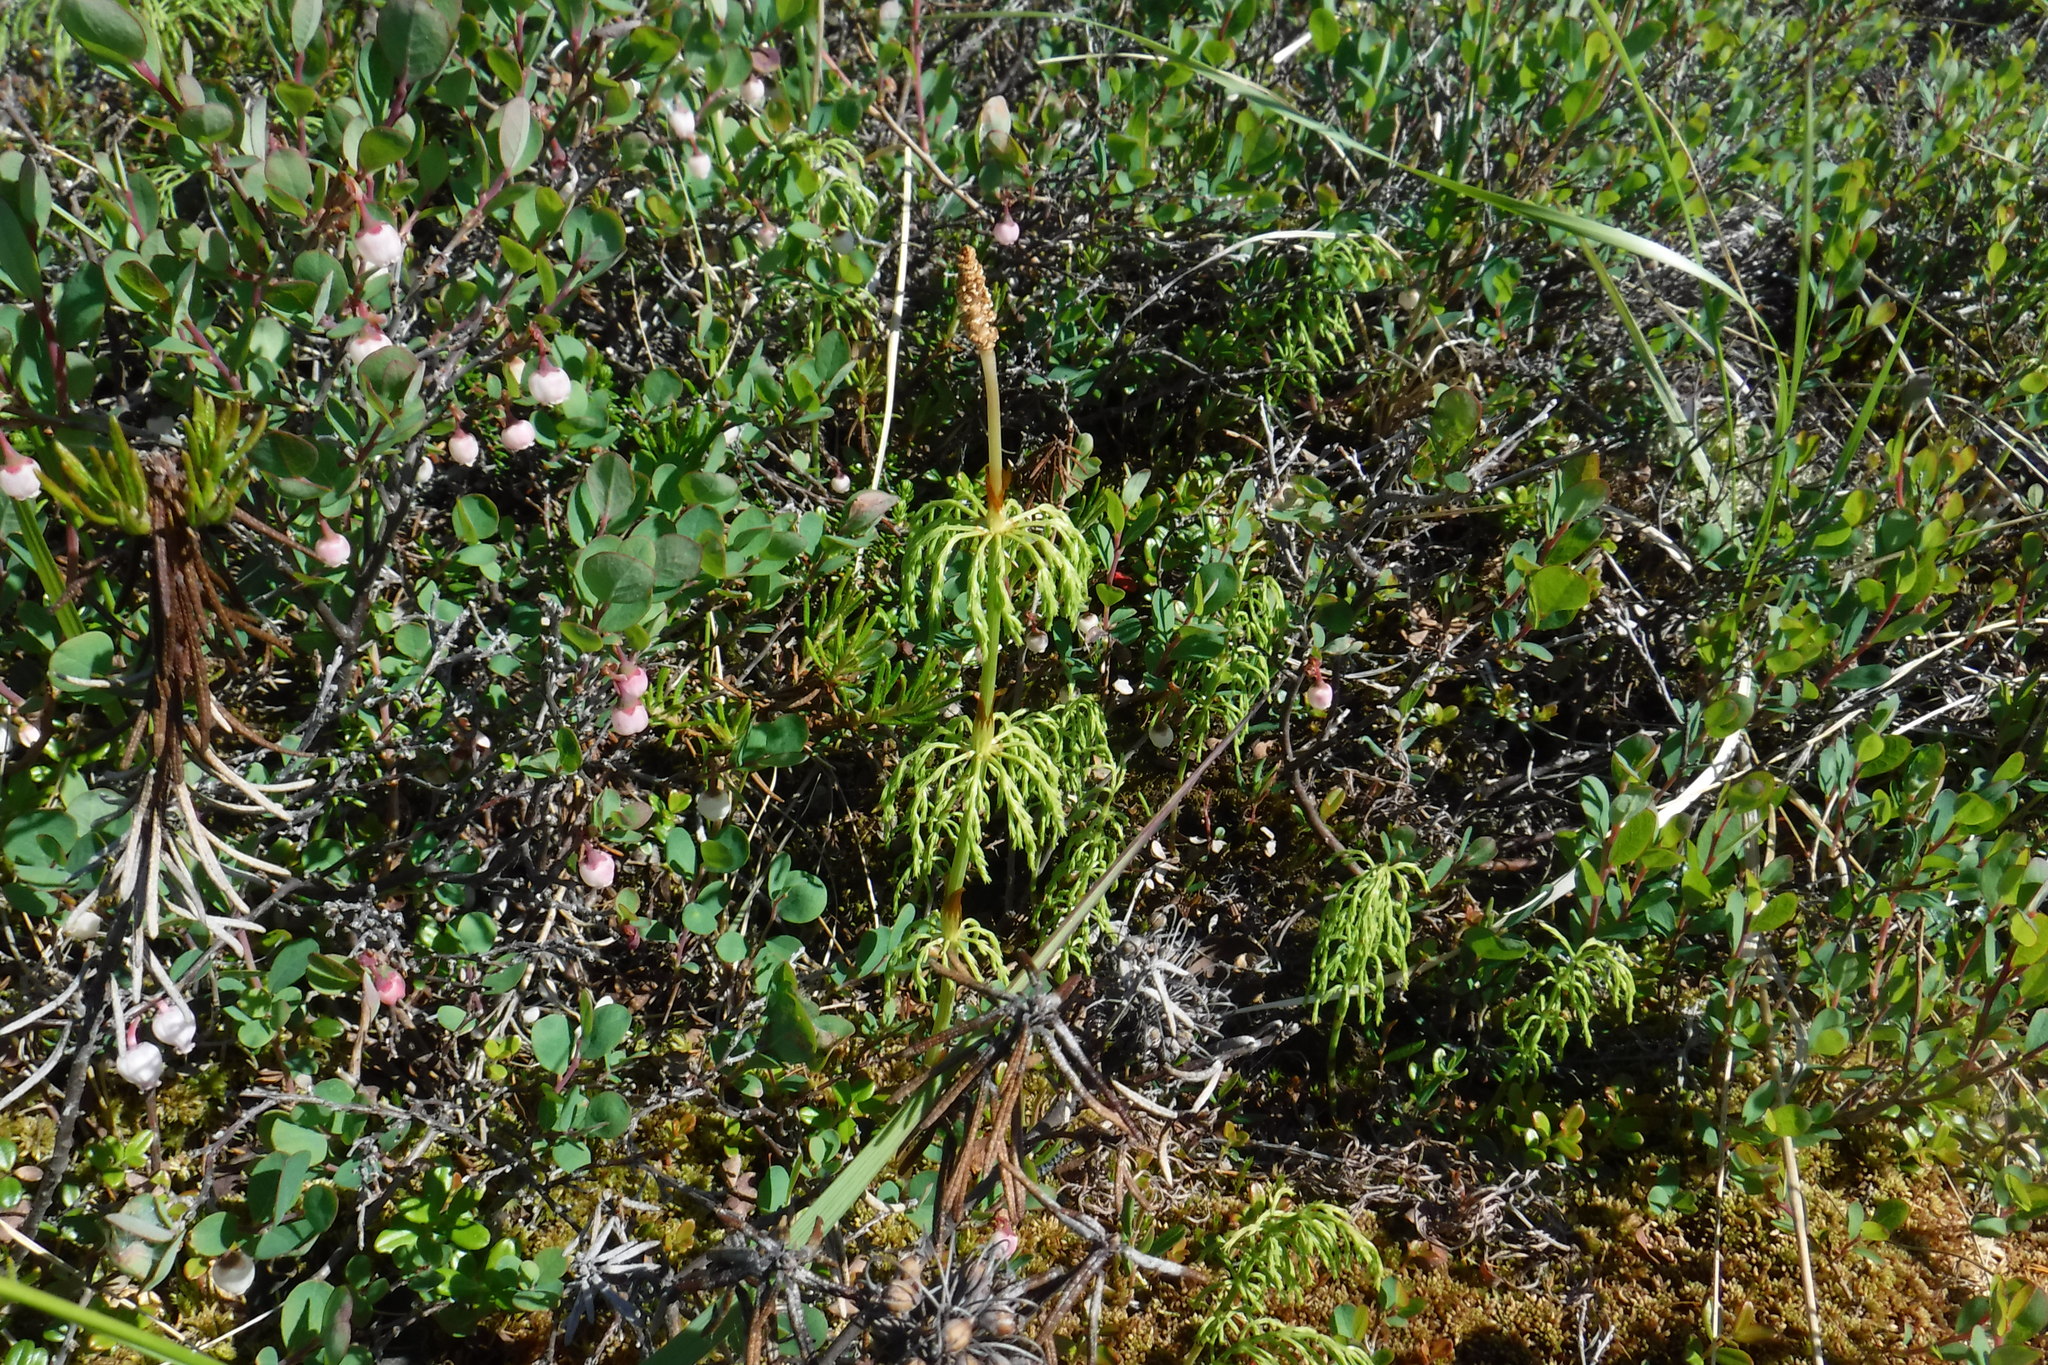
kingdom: Plantae
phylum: Tracheophyta
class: Polypodiopsida
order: Equisetales
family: Equisetaceae
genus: Equisetum
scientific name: Equisetum sylvaticum
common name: Wood horsetail
